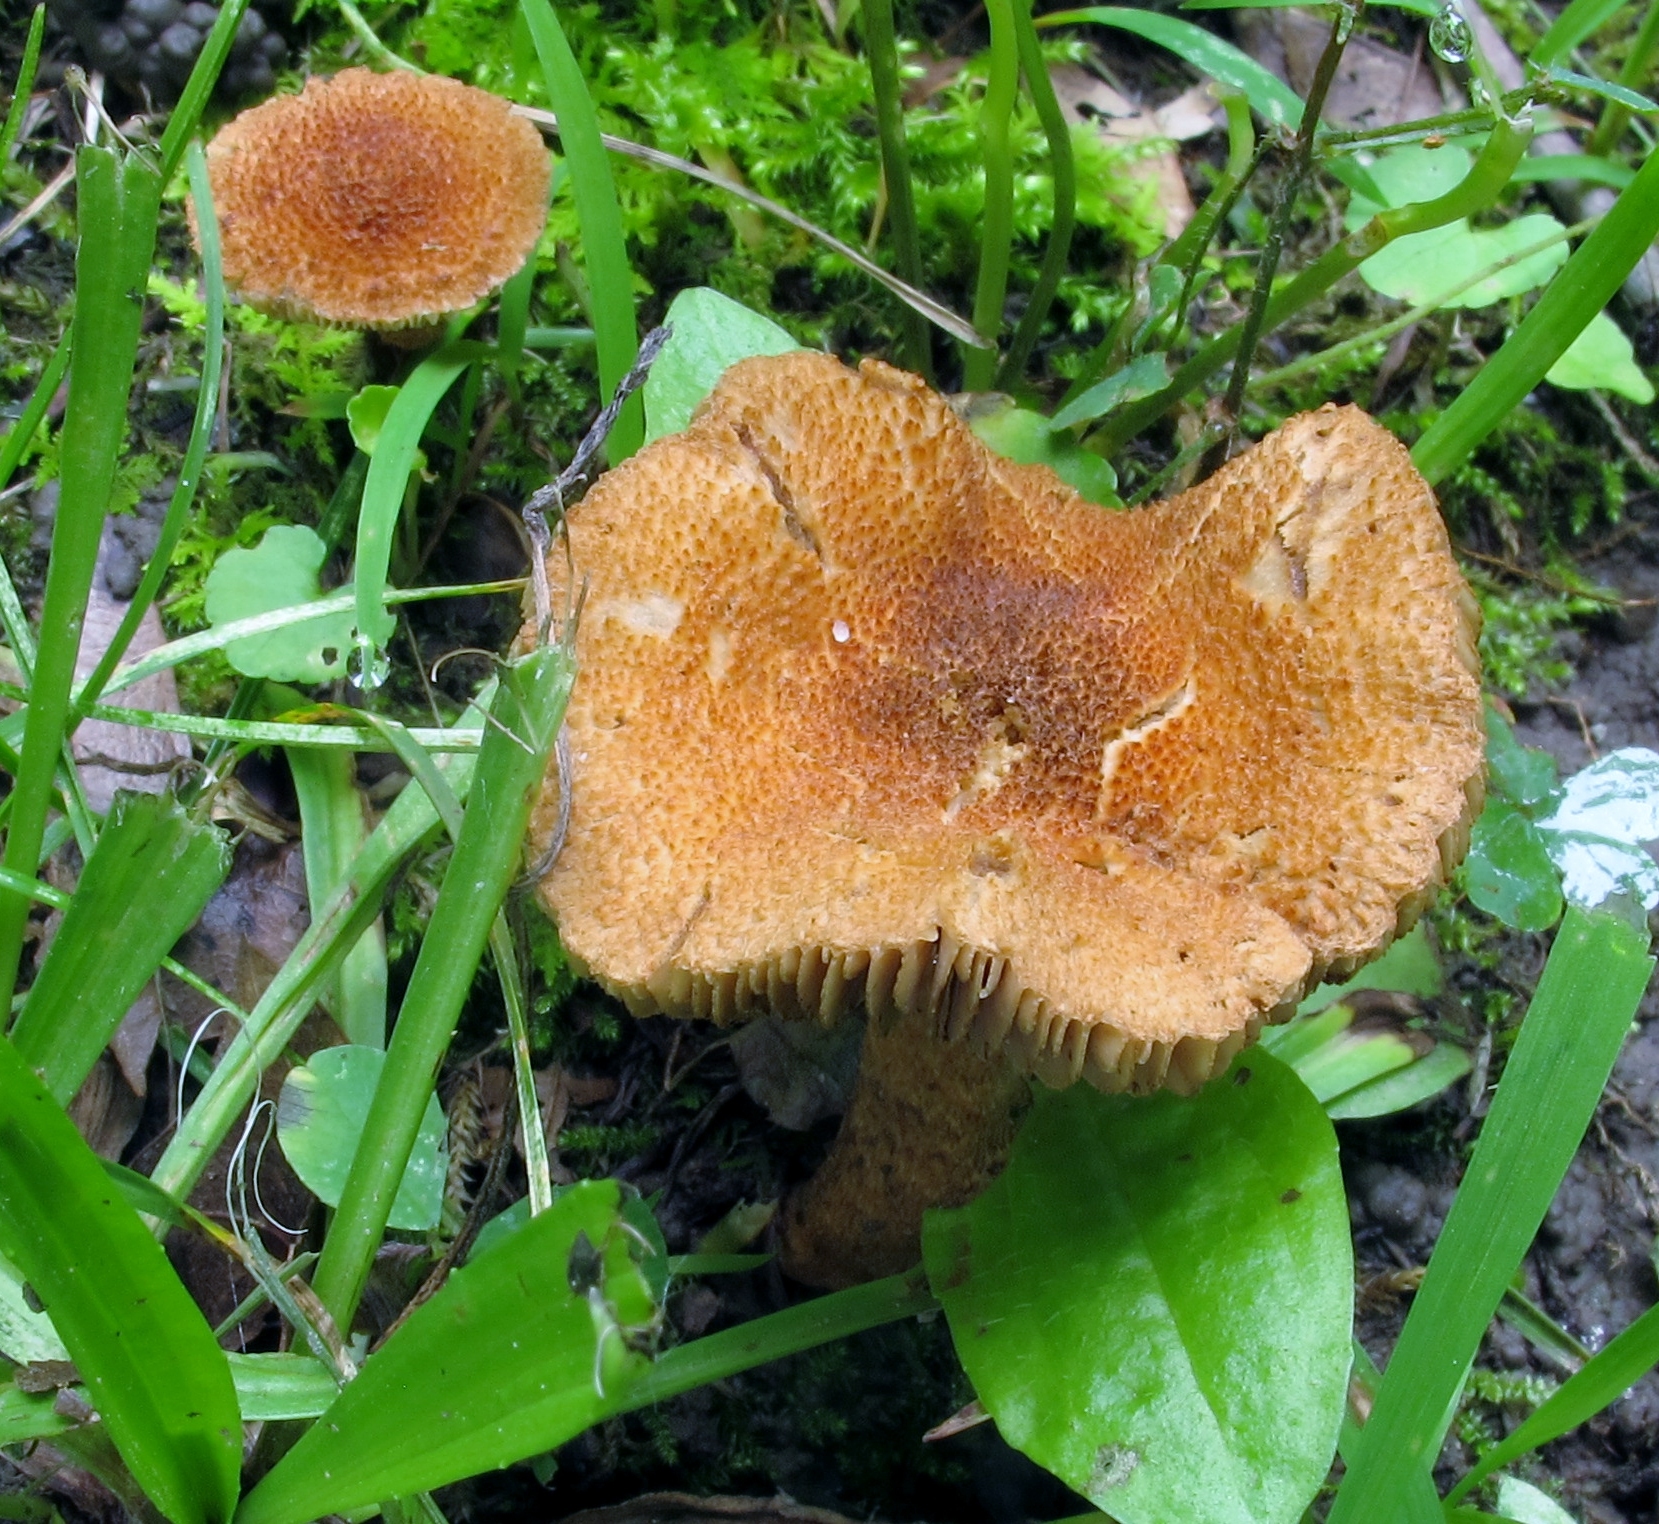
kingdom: Fungi
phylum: Basidiomycota
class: Agaricomycetes
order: Agaricales
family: Inocybaceae
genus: Mallocybe
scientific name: Mallocybe unicolor
